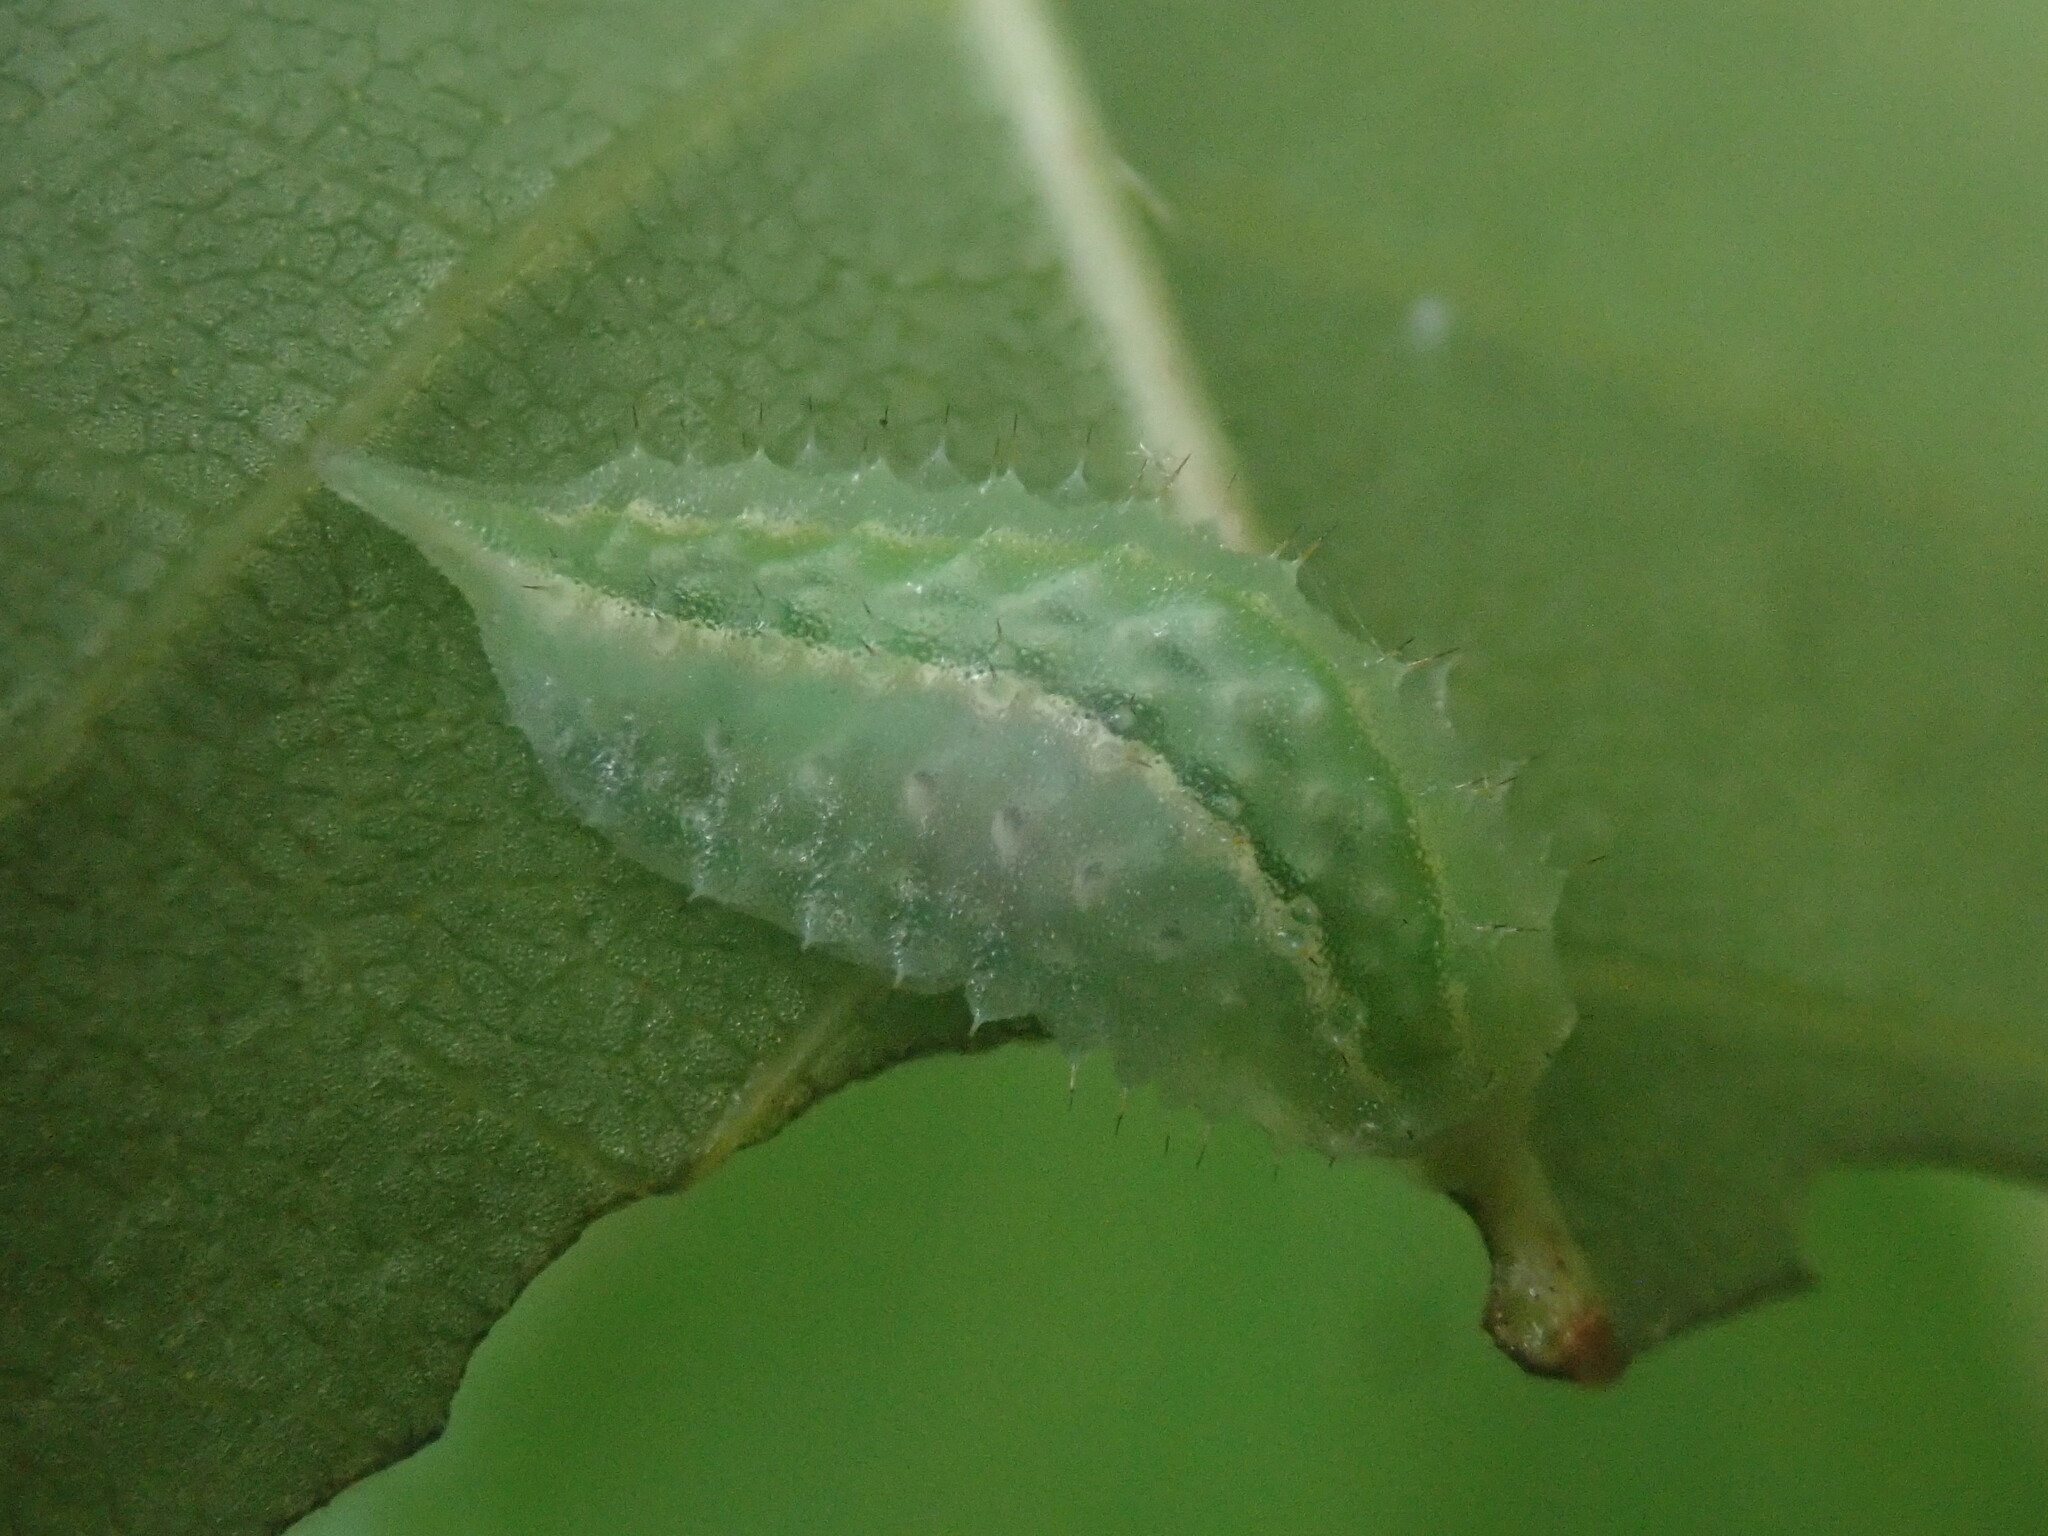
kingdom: Animalia
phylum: Arthropoda
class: Insecta
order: Lepidoptera
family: Limacodidae
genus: Packardia
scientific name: Packardia
